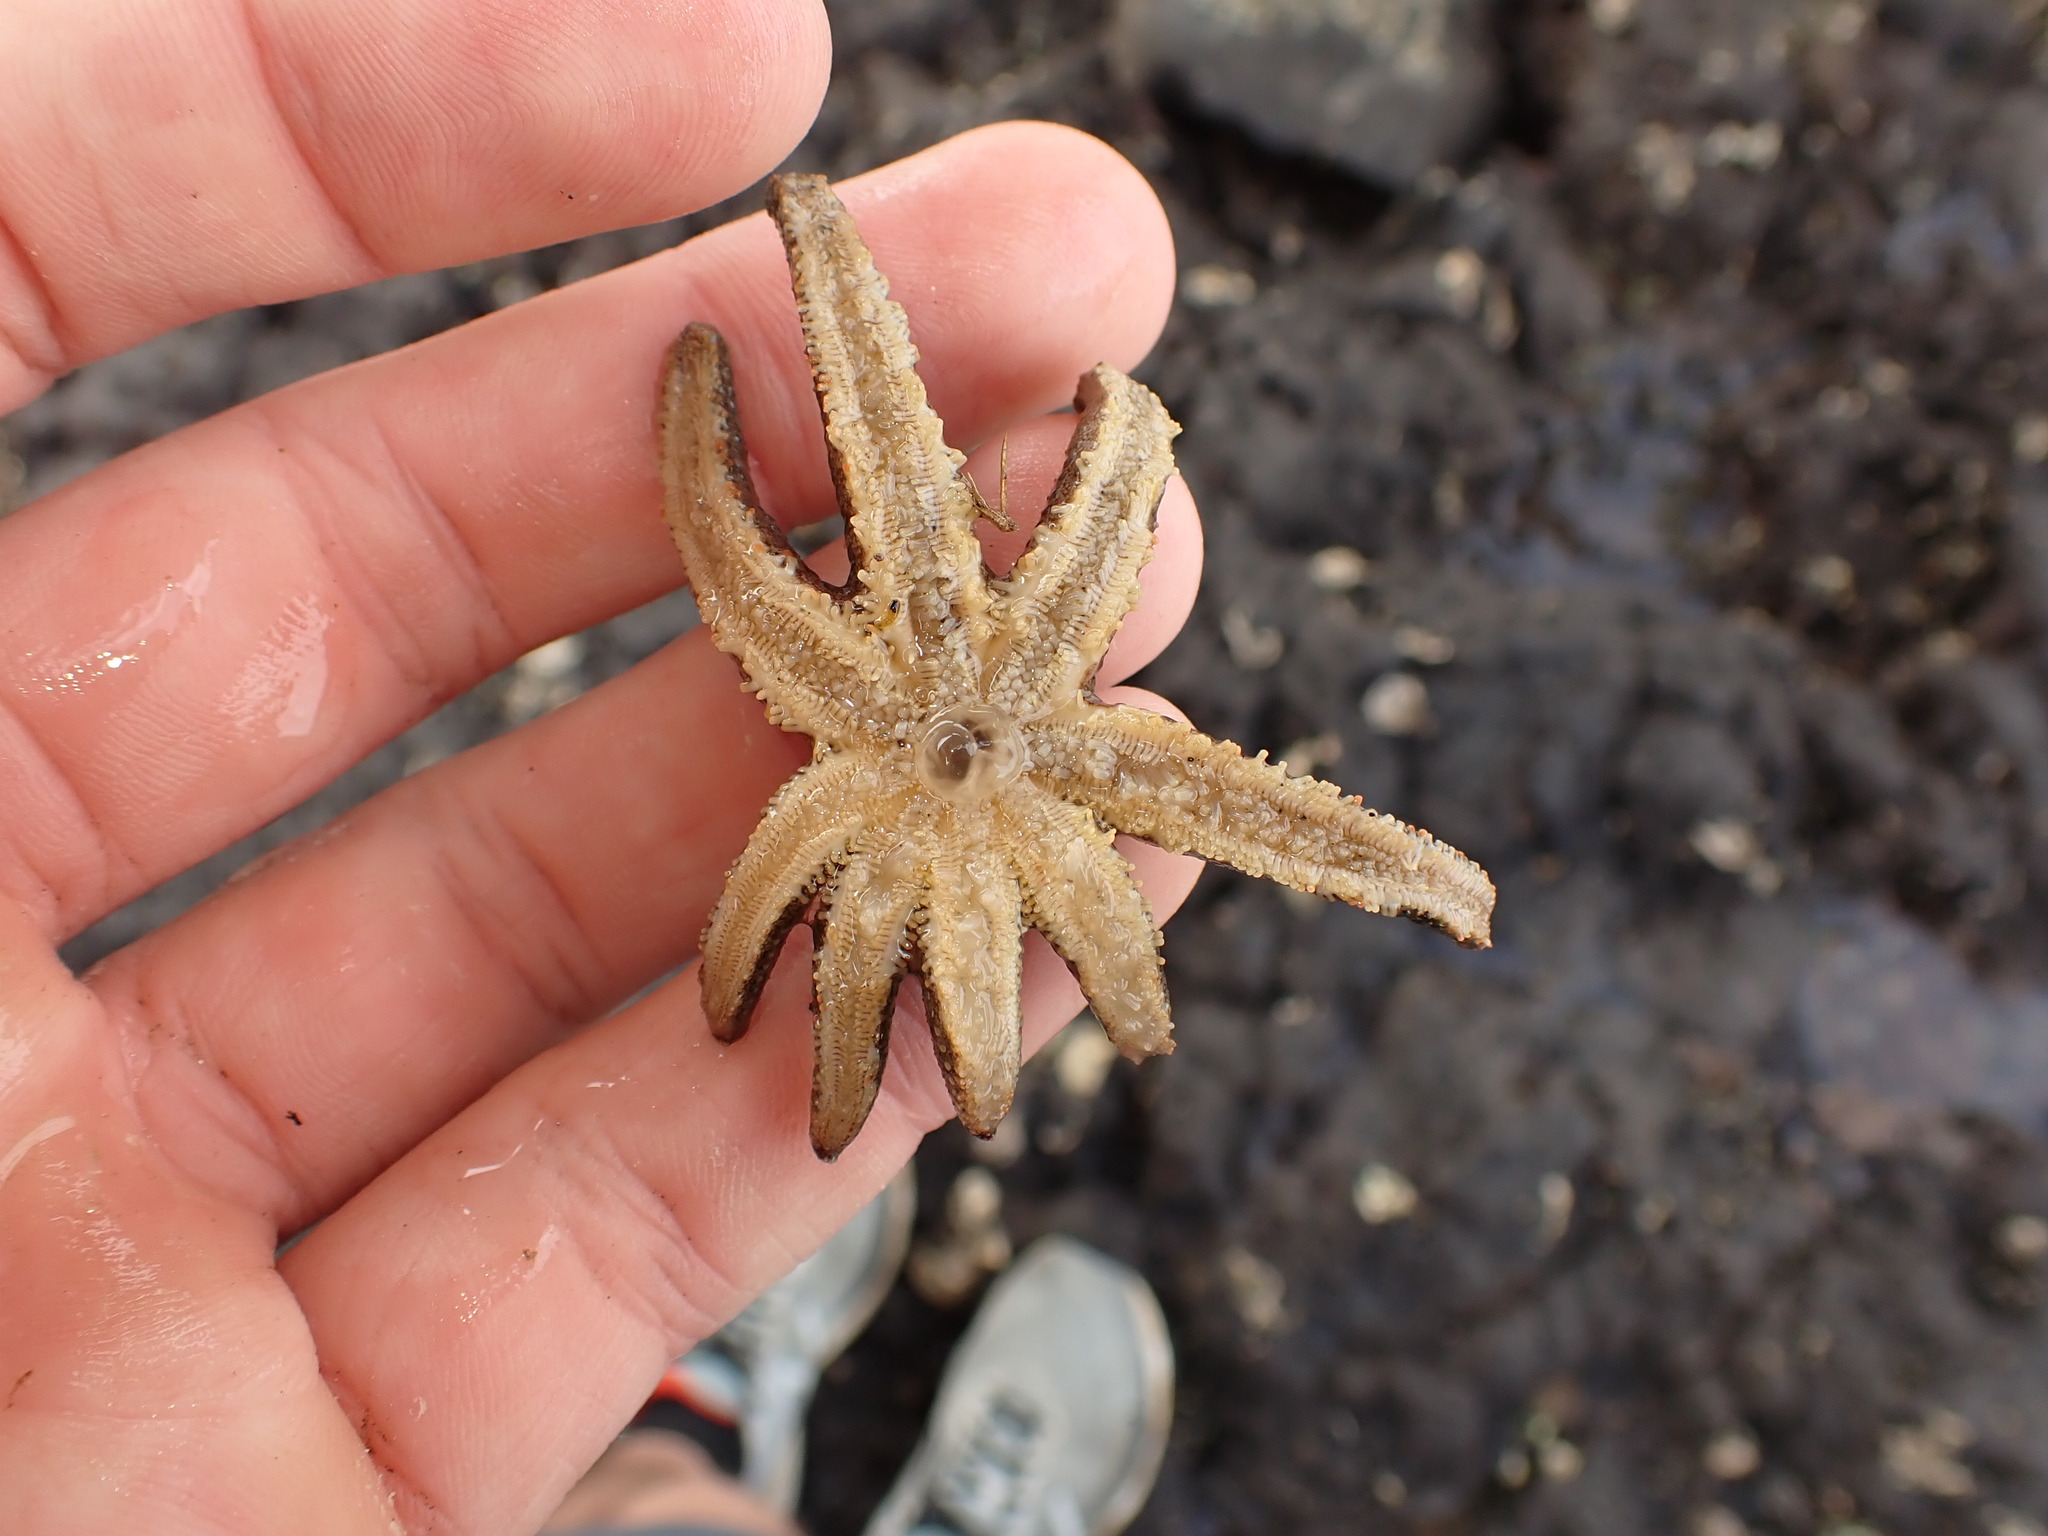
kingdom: Animalia
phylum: Echinodermata
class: Asteroidea
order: Forcipulatida
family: Stichasteridae
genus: Allostichaster
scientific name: Allostichaster polyplax
